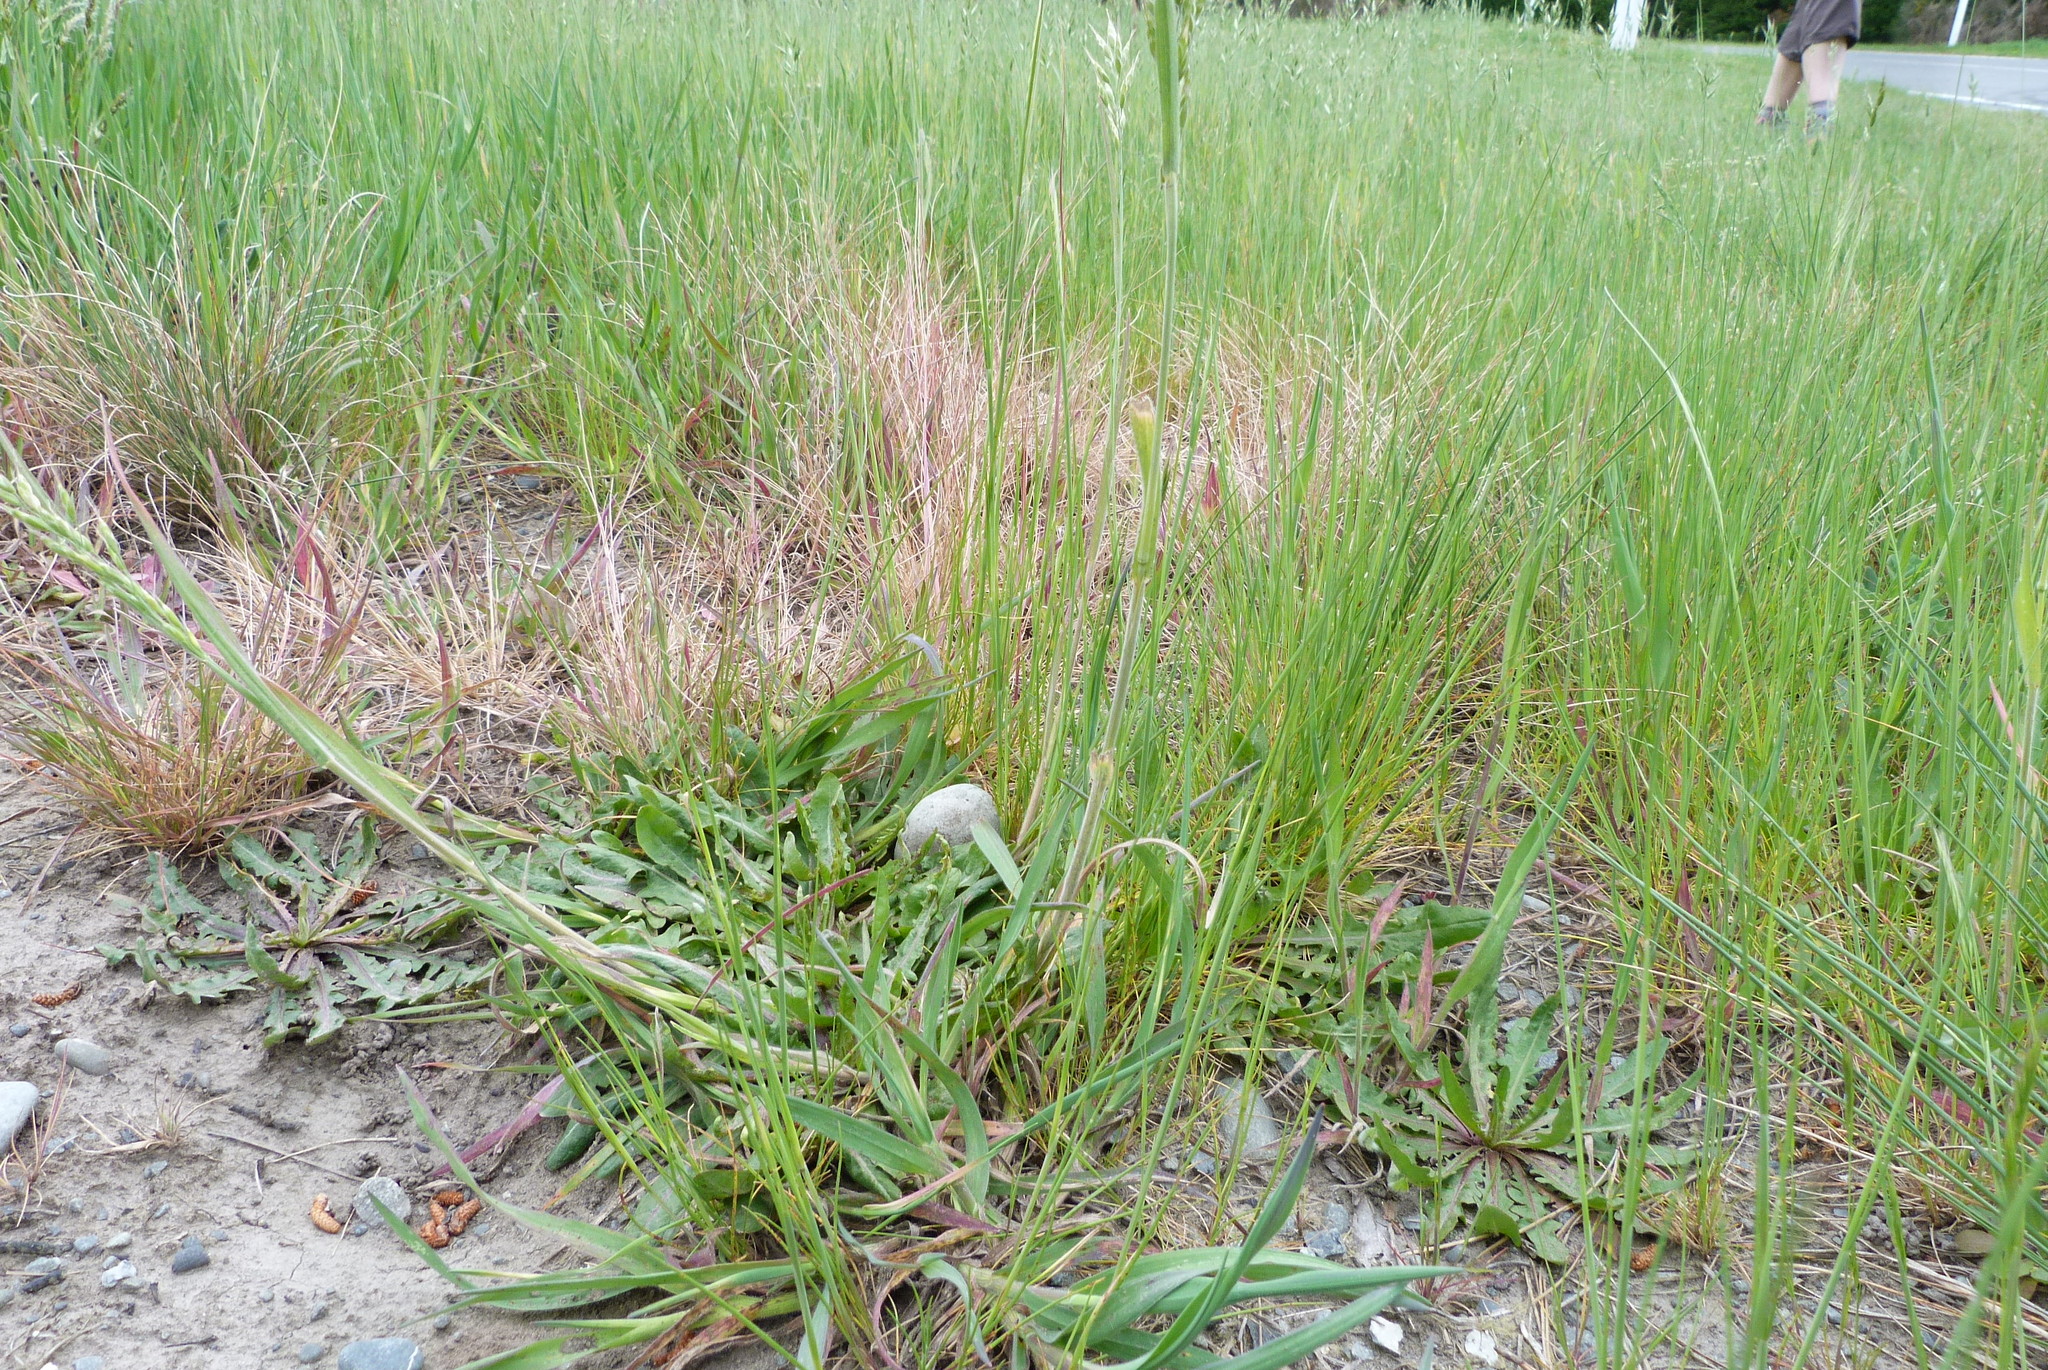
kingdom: Plantae
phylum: Tracheophyta
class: Liliopsida
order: Poales
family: Poaceae
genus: Bromus
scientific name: Bromus hordeaceus
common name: Soft brome
